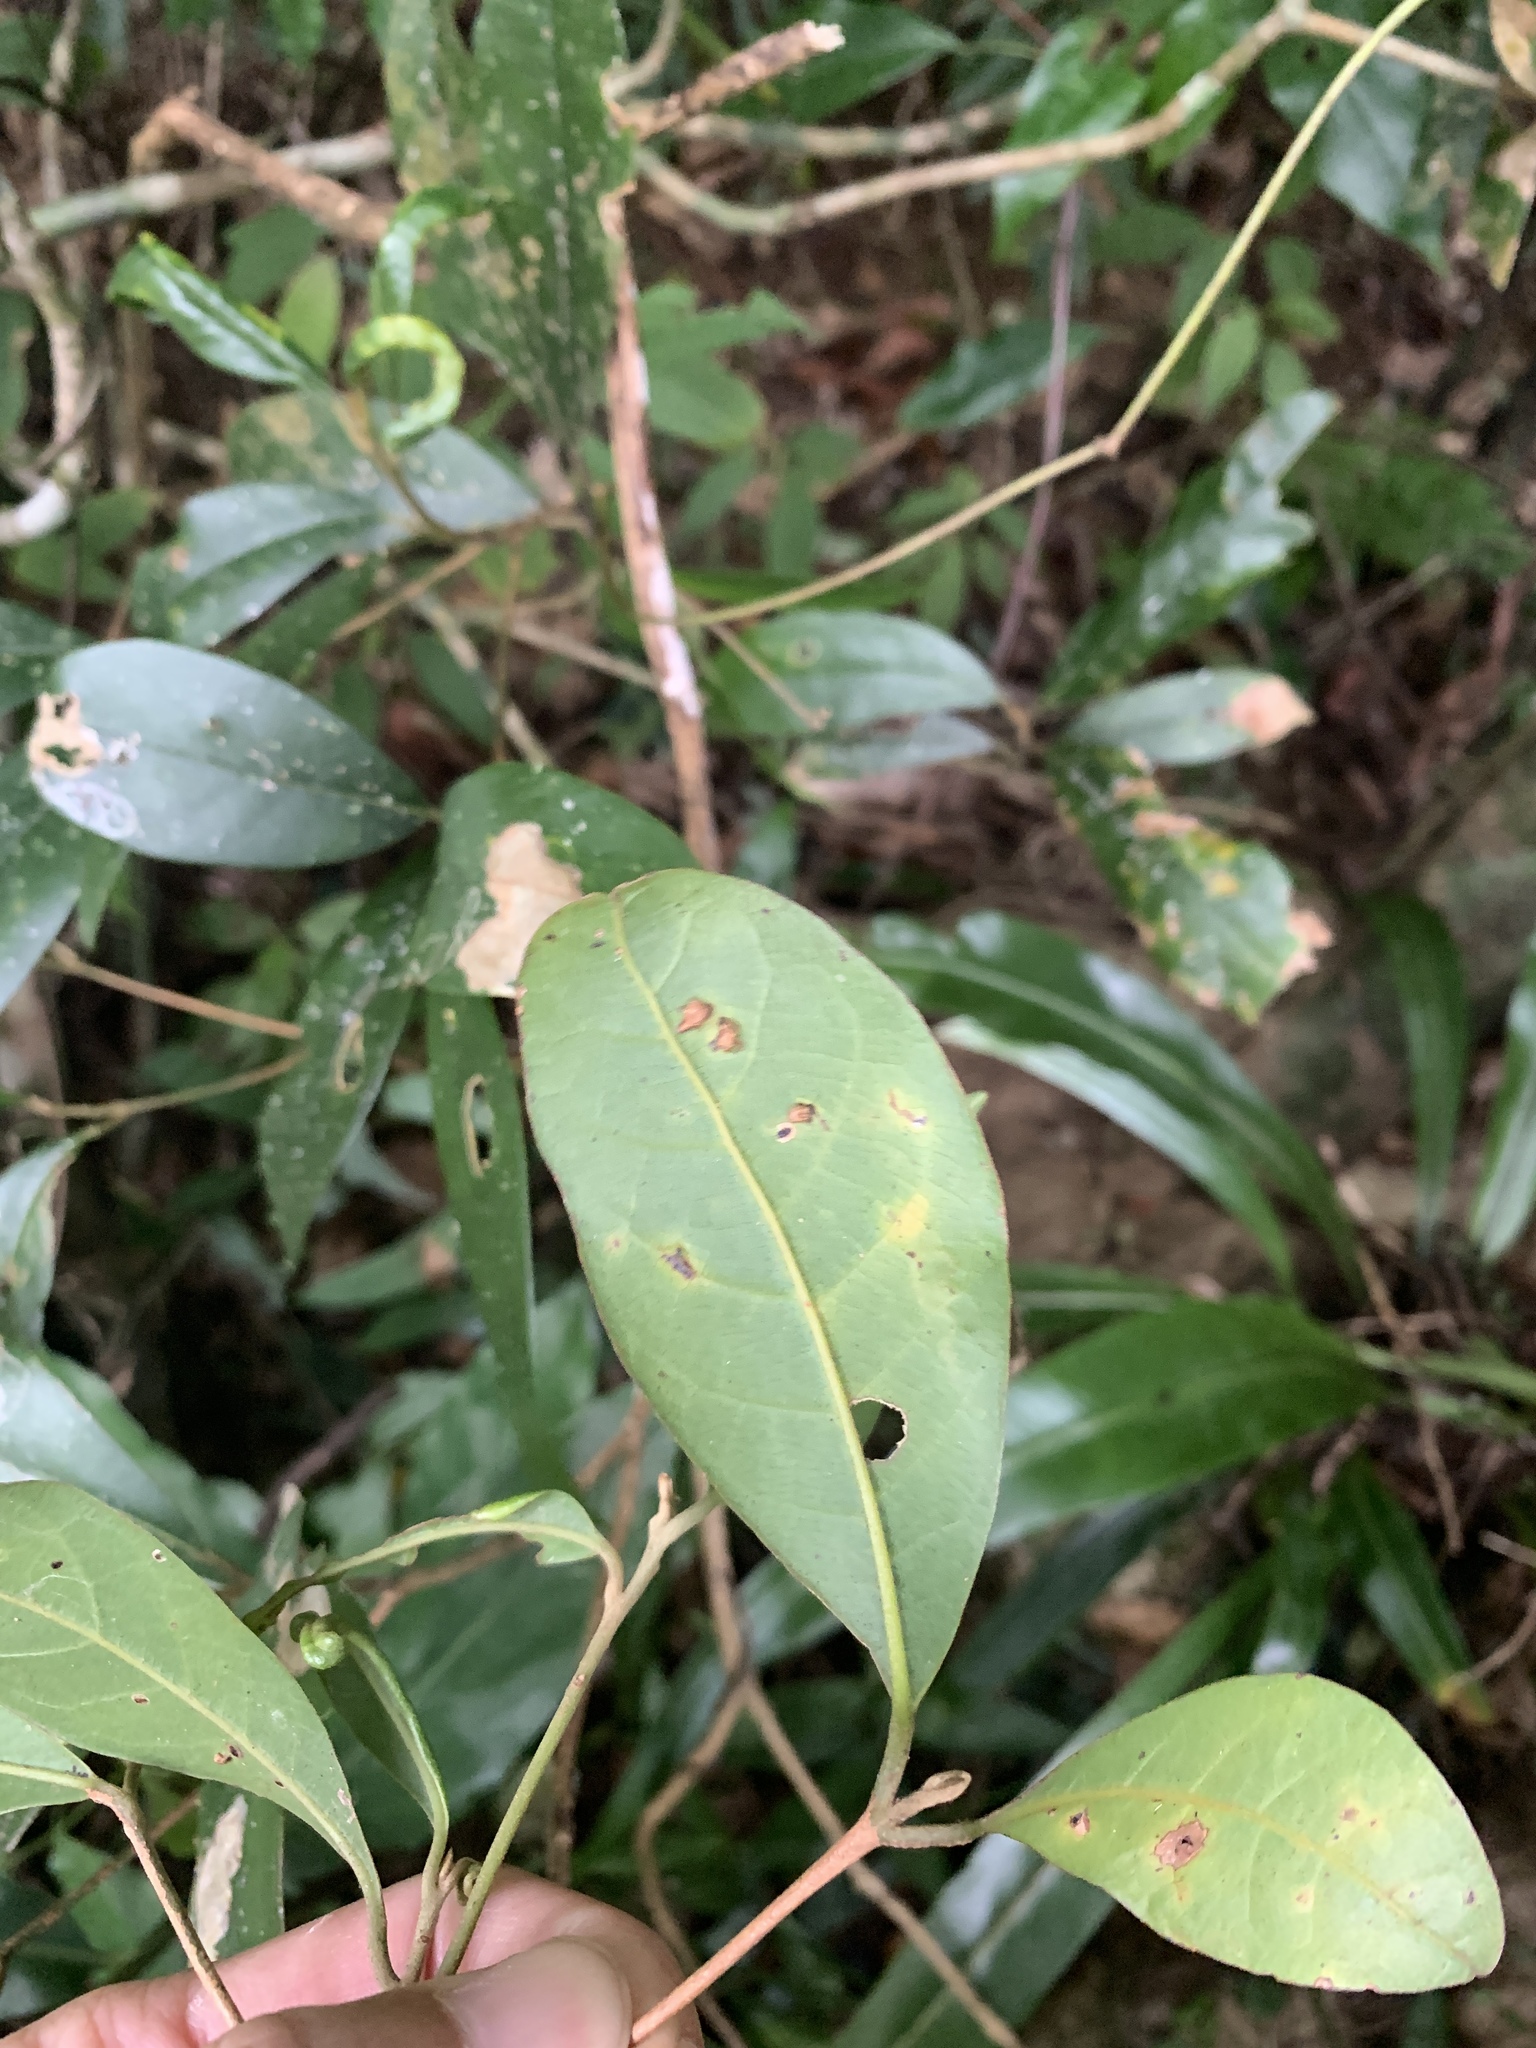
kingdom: Plantae
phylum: Tracheophyta
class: Magnoliopsida
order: Laurales
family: Lauraceae
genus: Litsea
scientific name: Litsea hypophaea
